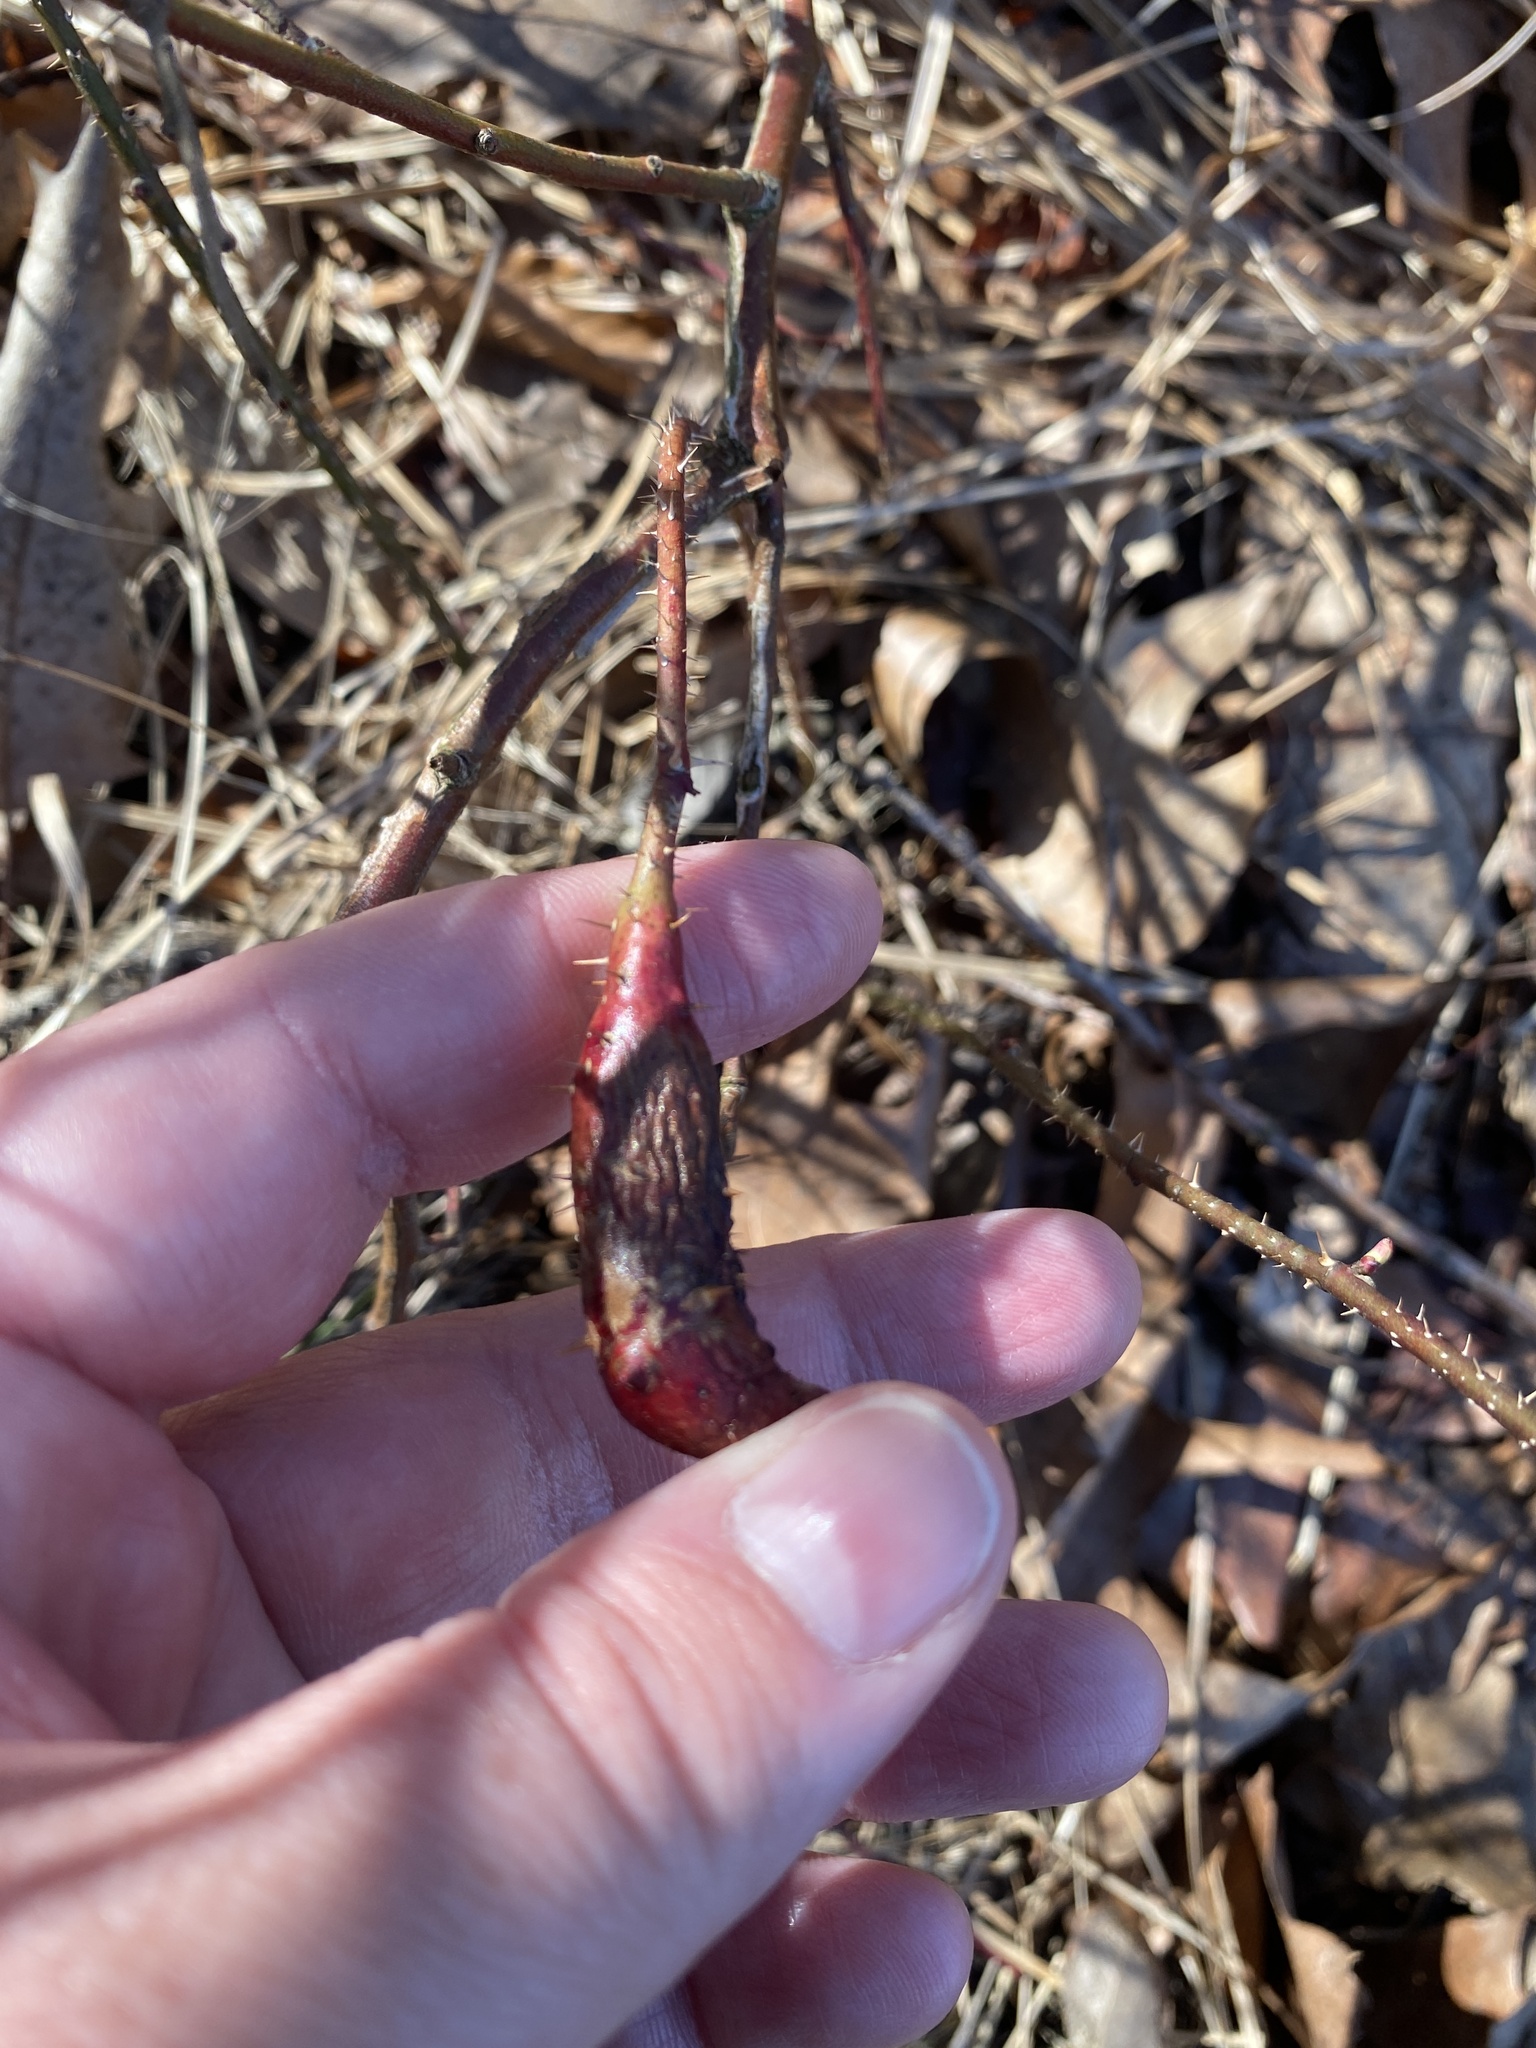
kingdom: Animalia
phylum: Arthropoda
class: Insecta
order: Hymenoptera
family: Cynipidae
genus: Diplolepis
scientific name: Diplolepis
